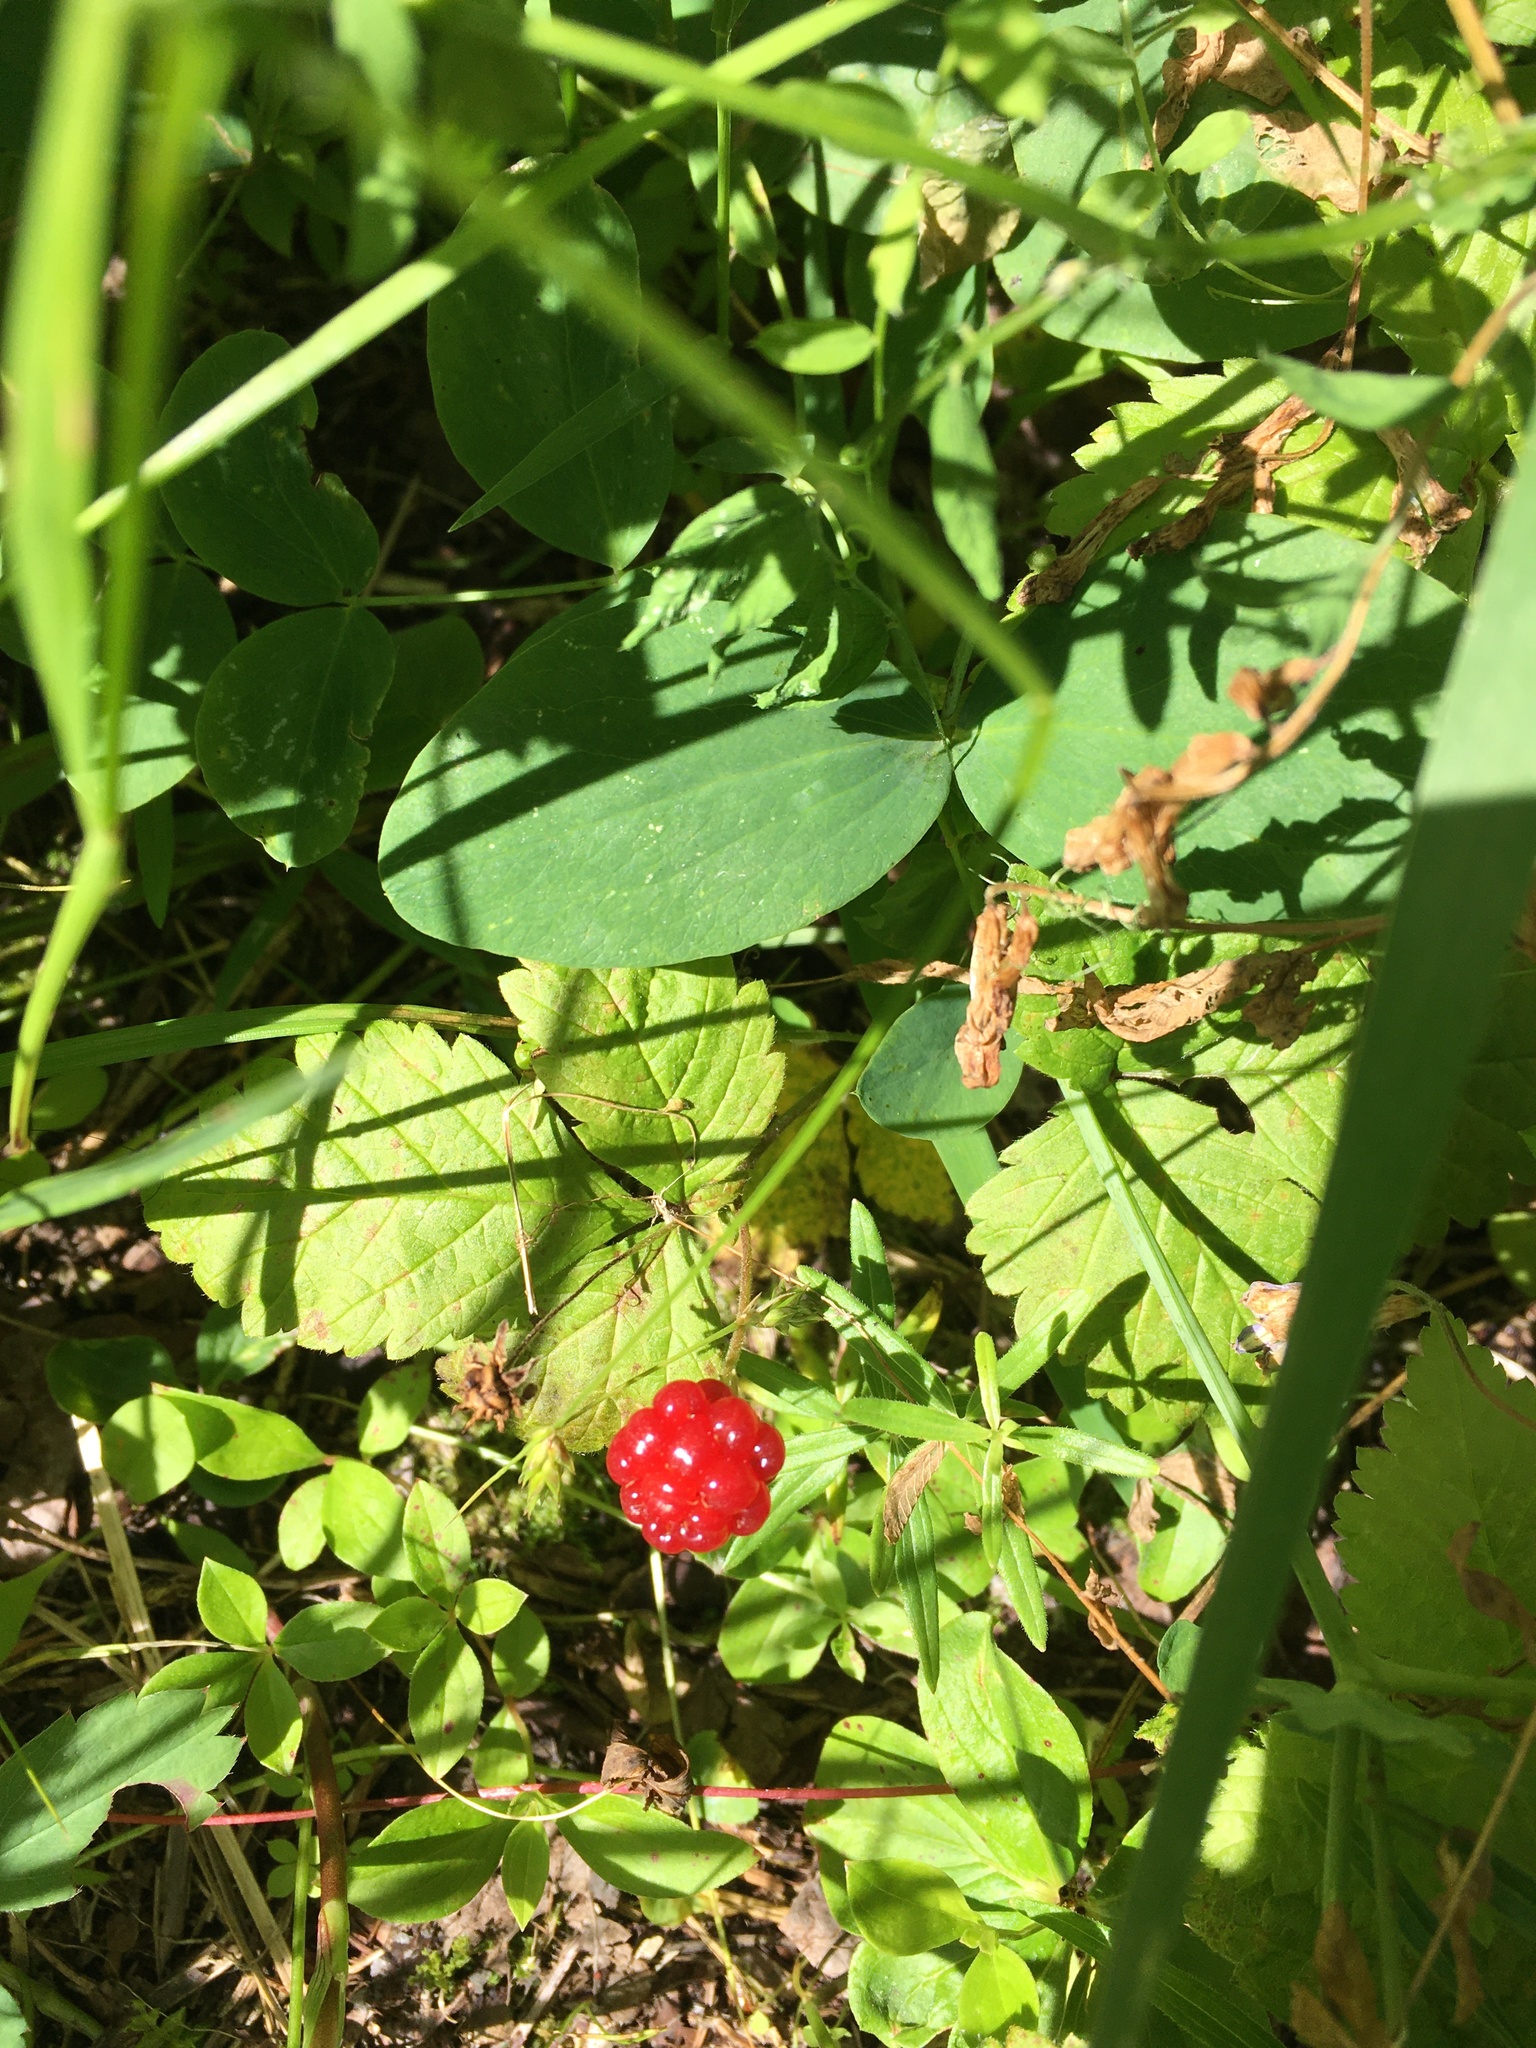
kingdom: Plantae
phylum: Tracheophyta
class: Magnoliopsida
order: Rosales
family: Rosaceae
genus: Rubus
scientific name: Rubus pubescens
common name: Dwarf raspberry
